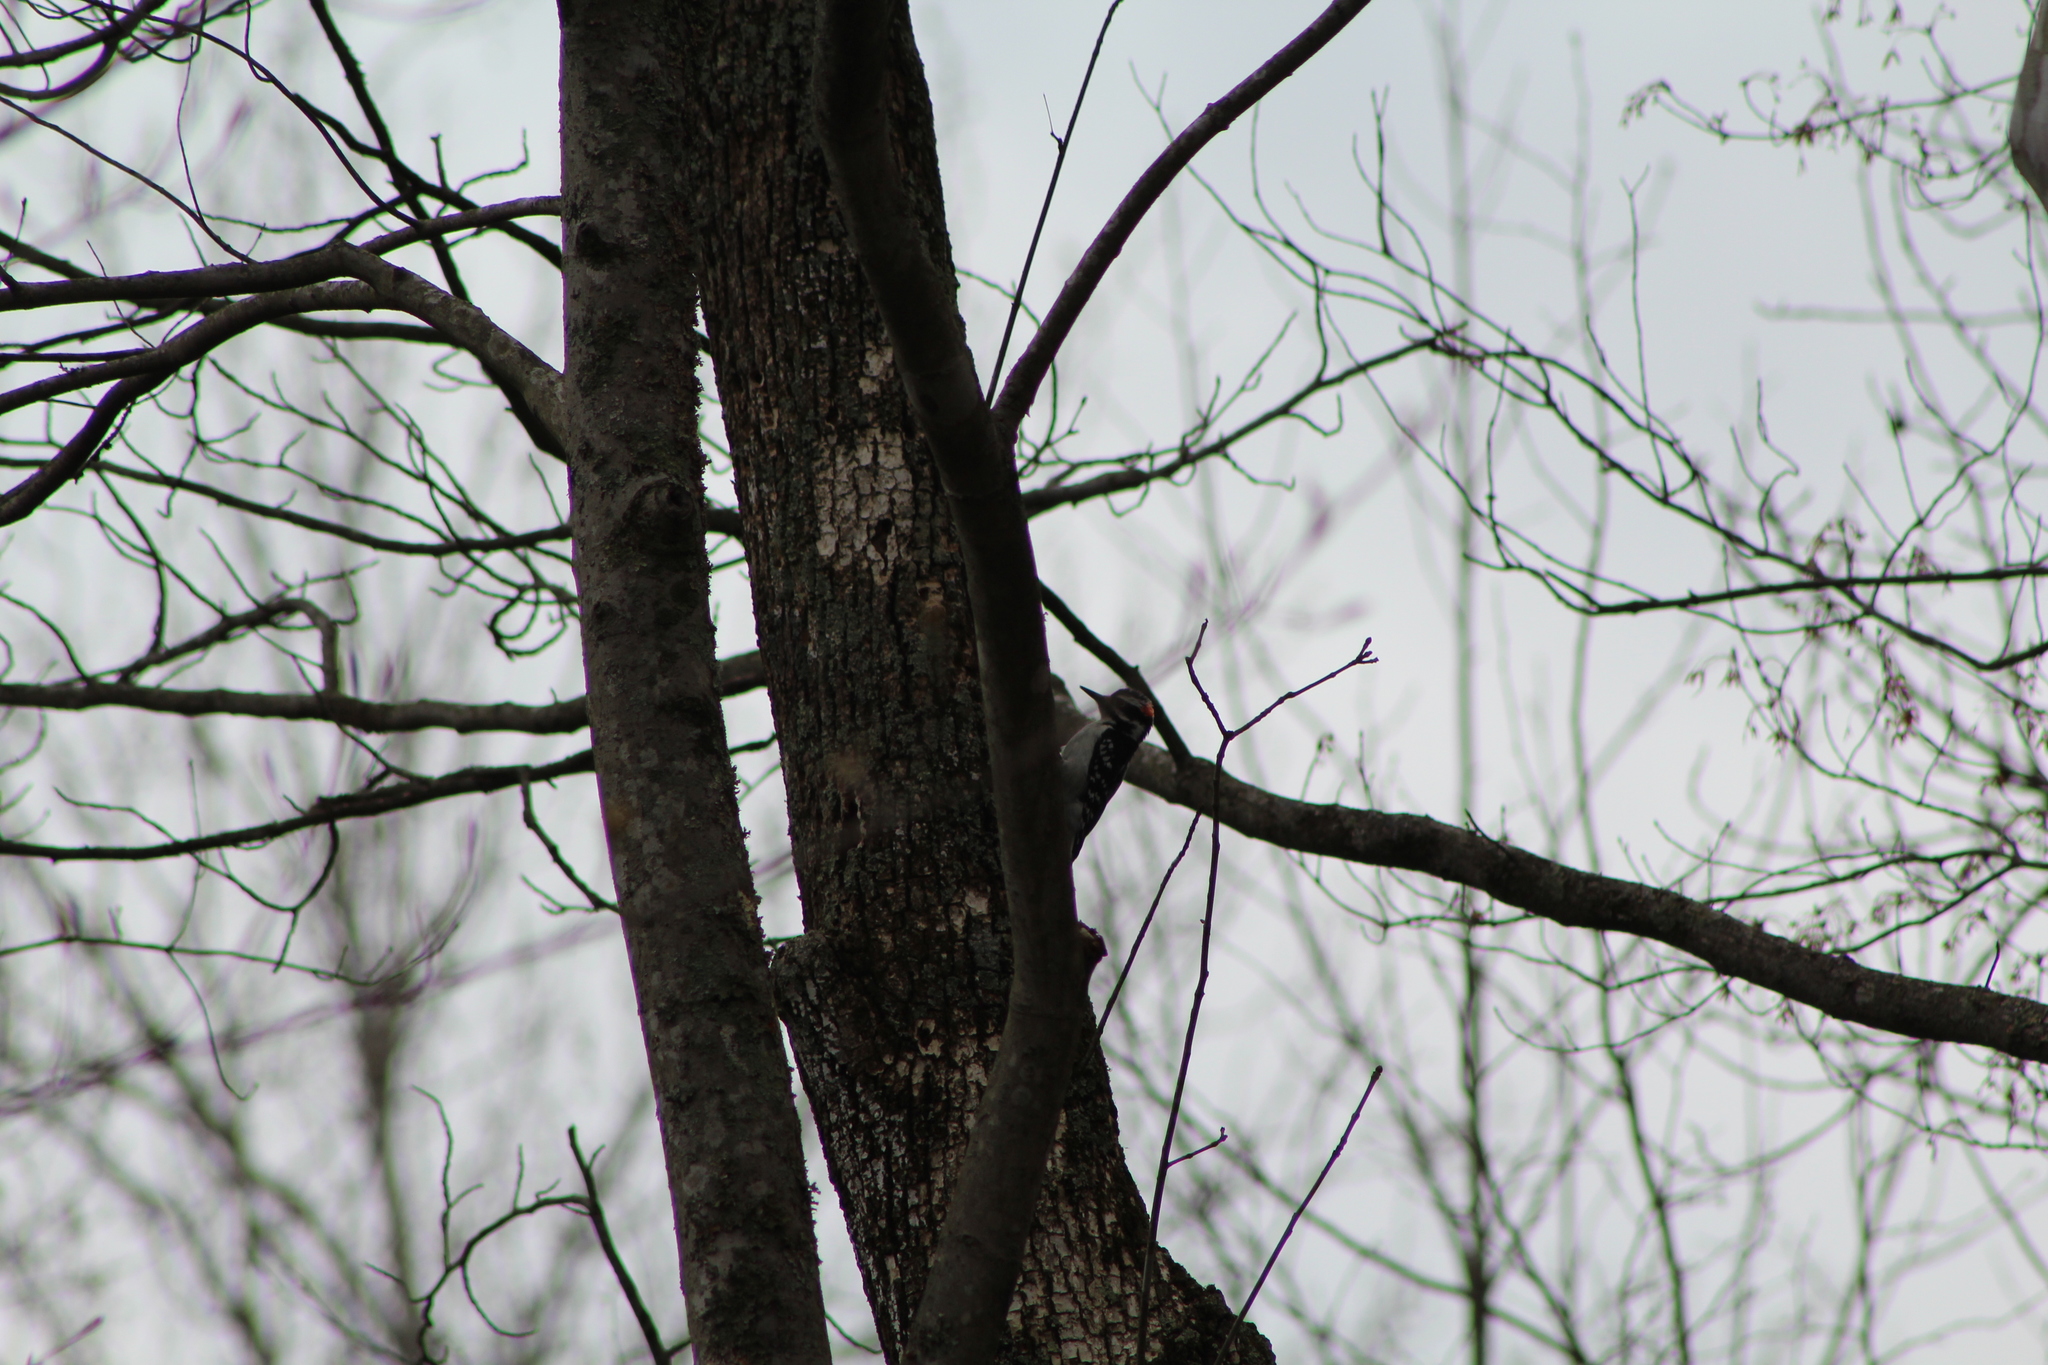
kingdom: Animalia
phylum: Chordata
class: Aves
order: Piciformes
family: Picidae
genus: Leuconotopicus
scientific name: Leuconotopicus villosus
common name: Hairy woodpecker
